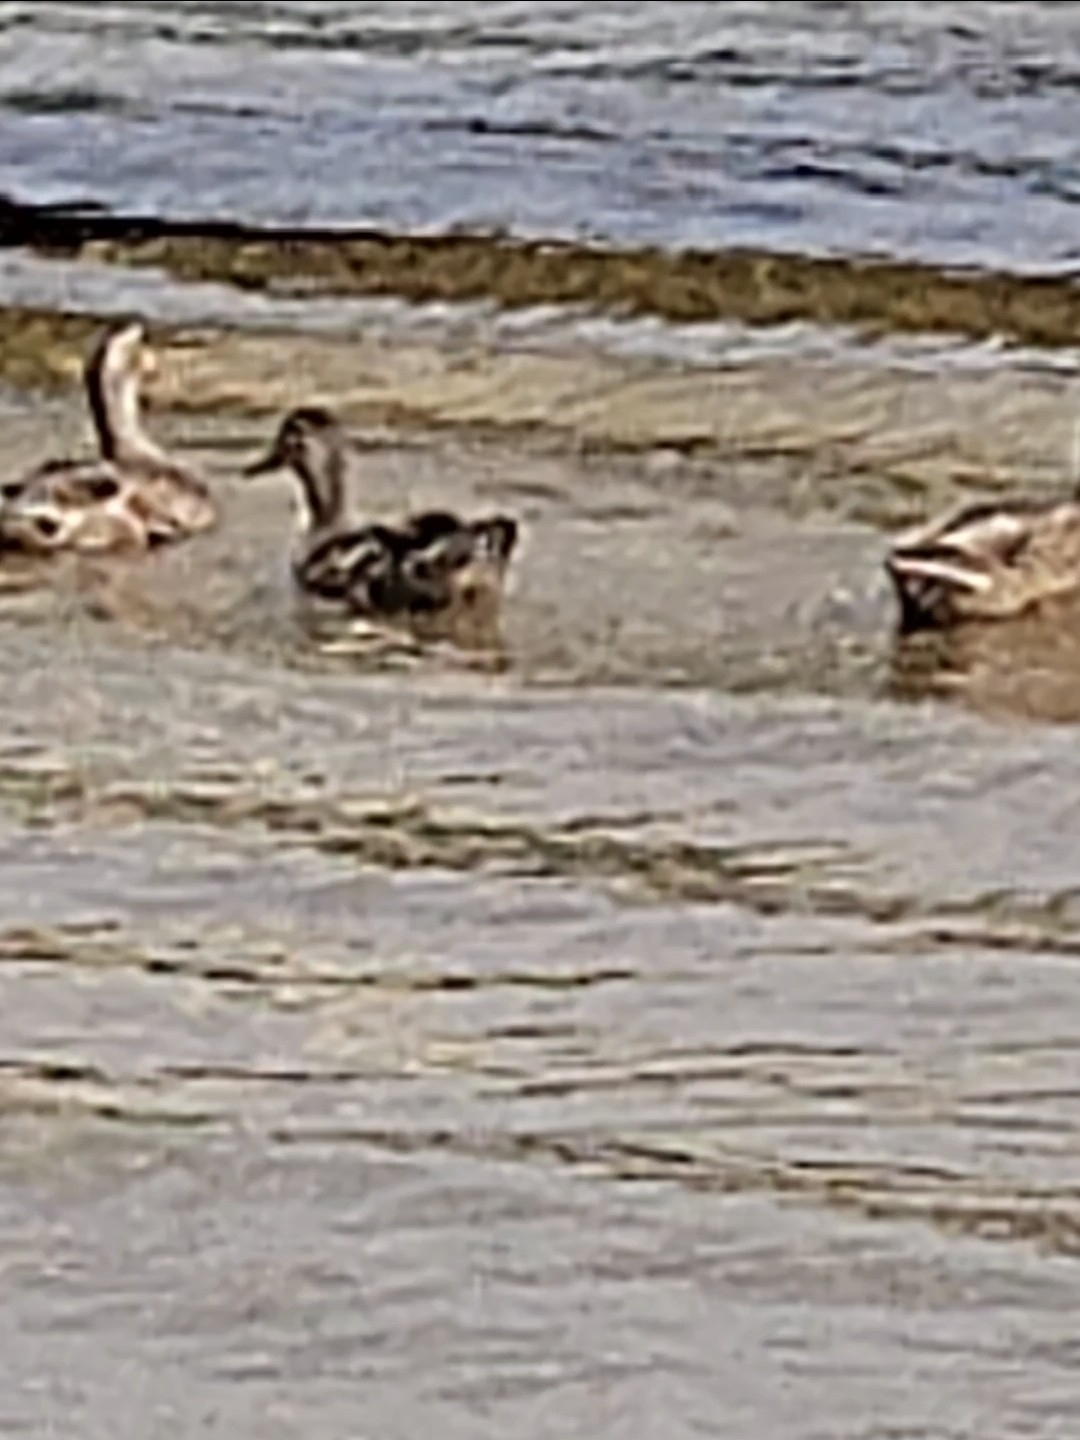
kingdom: Animalia
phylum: Chordata
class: Aves
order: Anseriformes
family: Anatidae
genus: Anas
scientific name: Anas platyrhynchos
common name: Mallard
